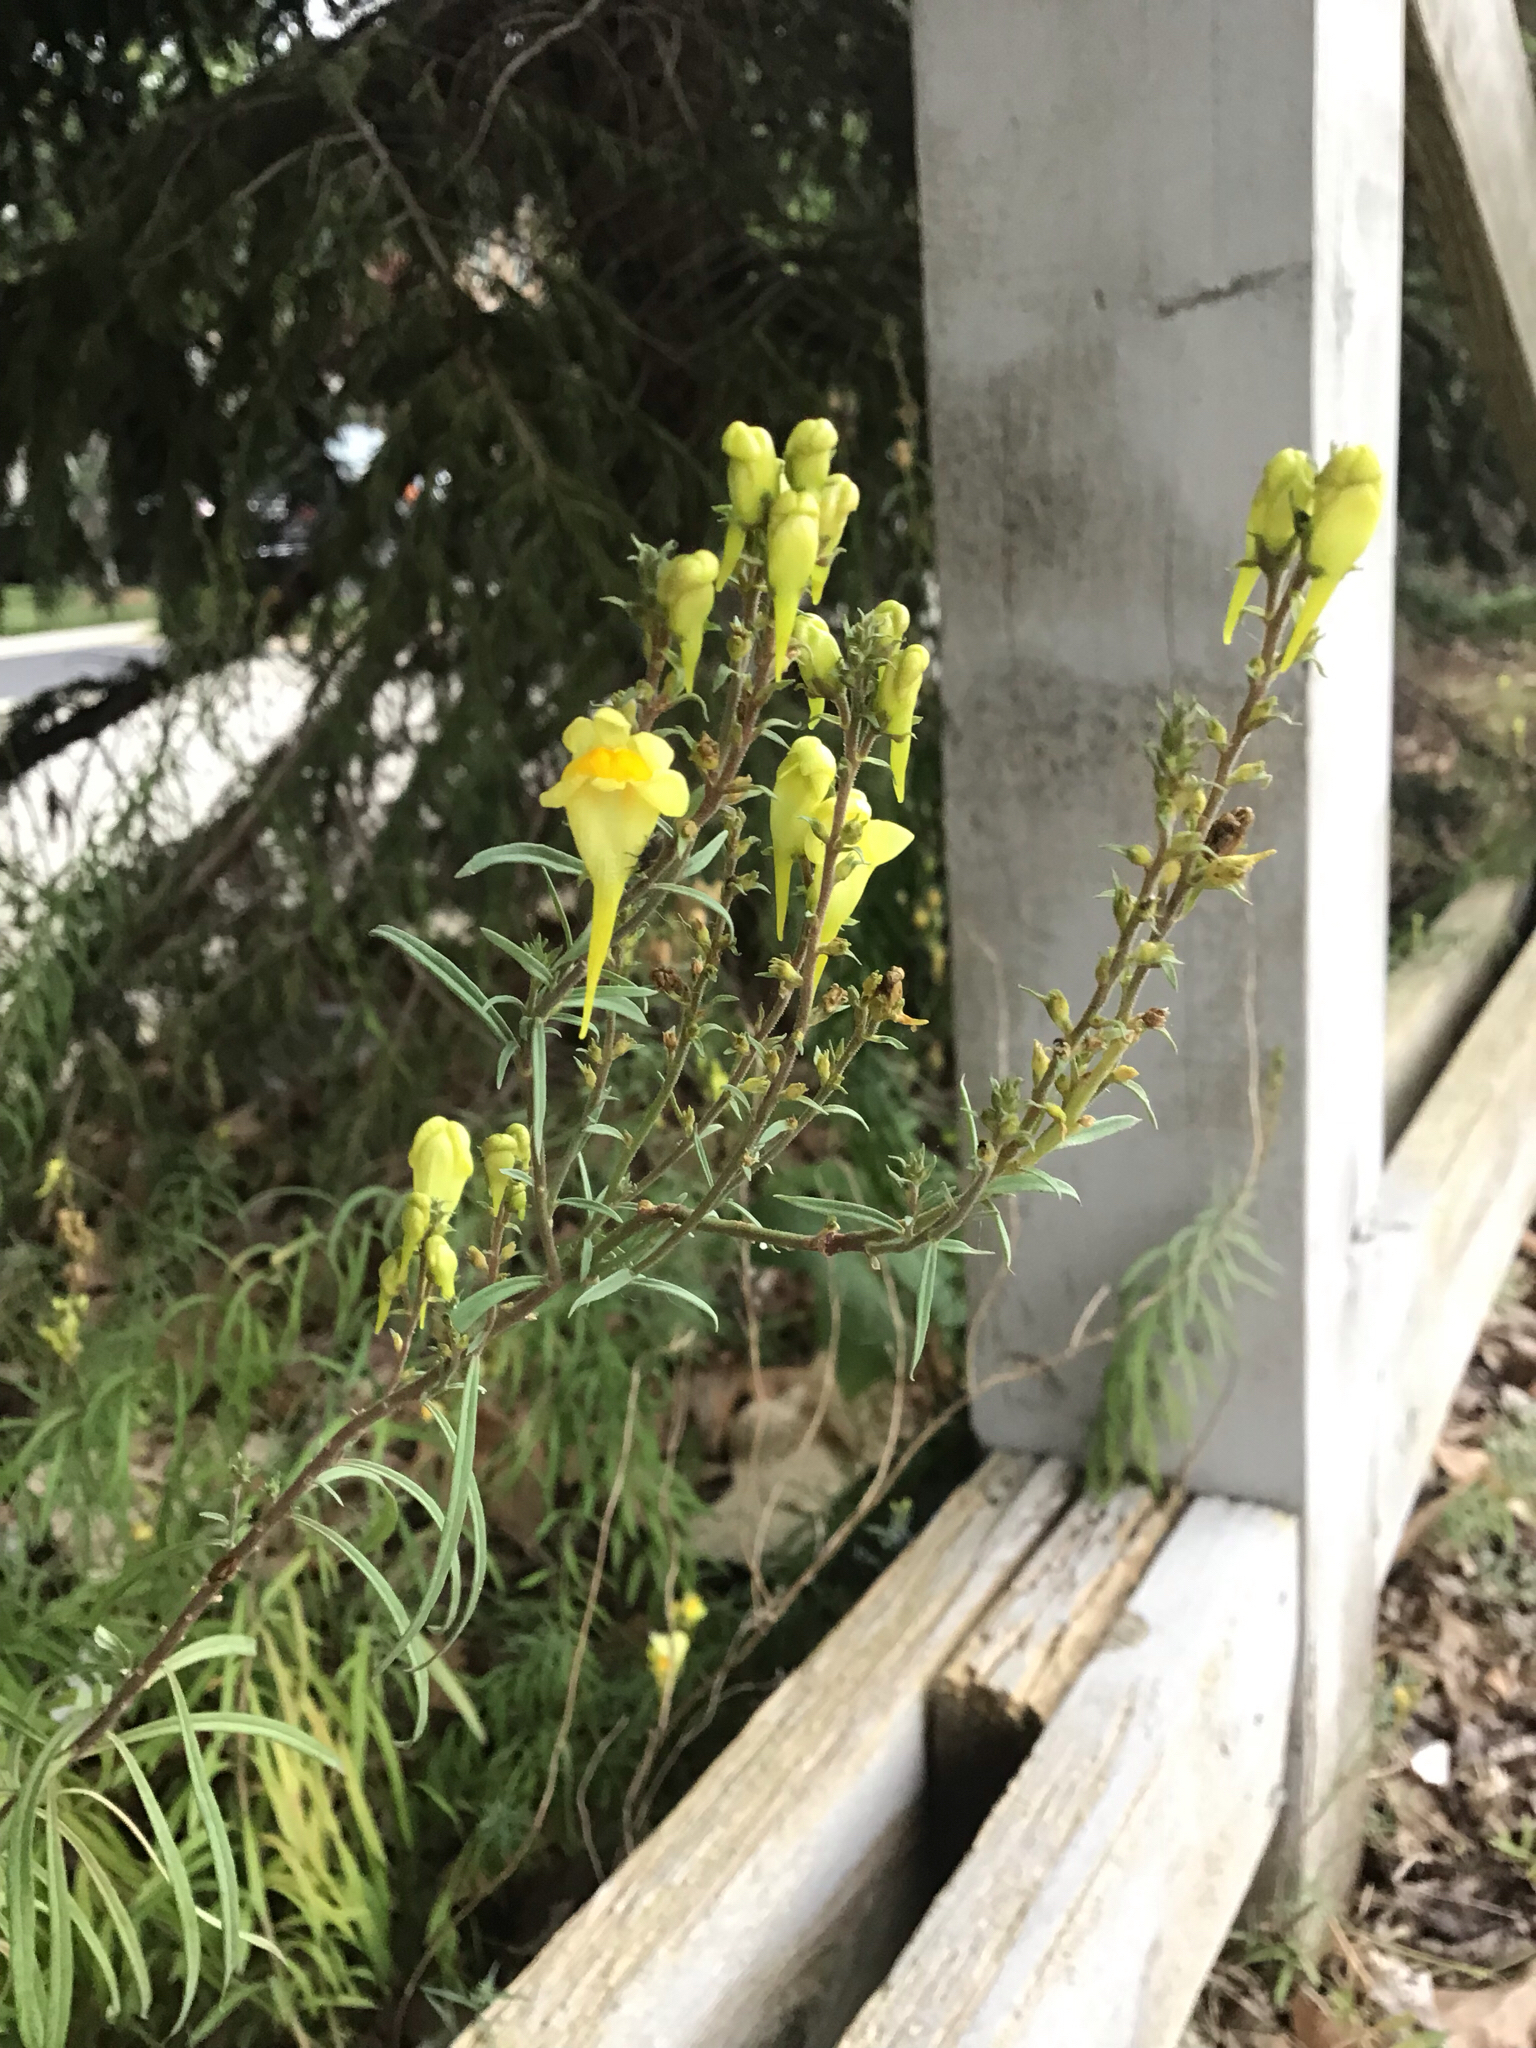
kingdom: Plantae
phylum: Tracheophyta
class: Magnoliopsida
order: Lamiales
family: Plantaginaceae
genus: Linaria
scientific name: Linaria vulgaris
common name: Butter and eggs
